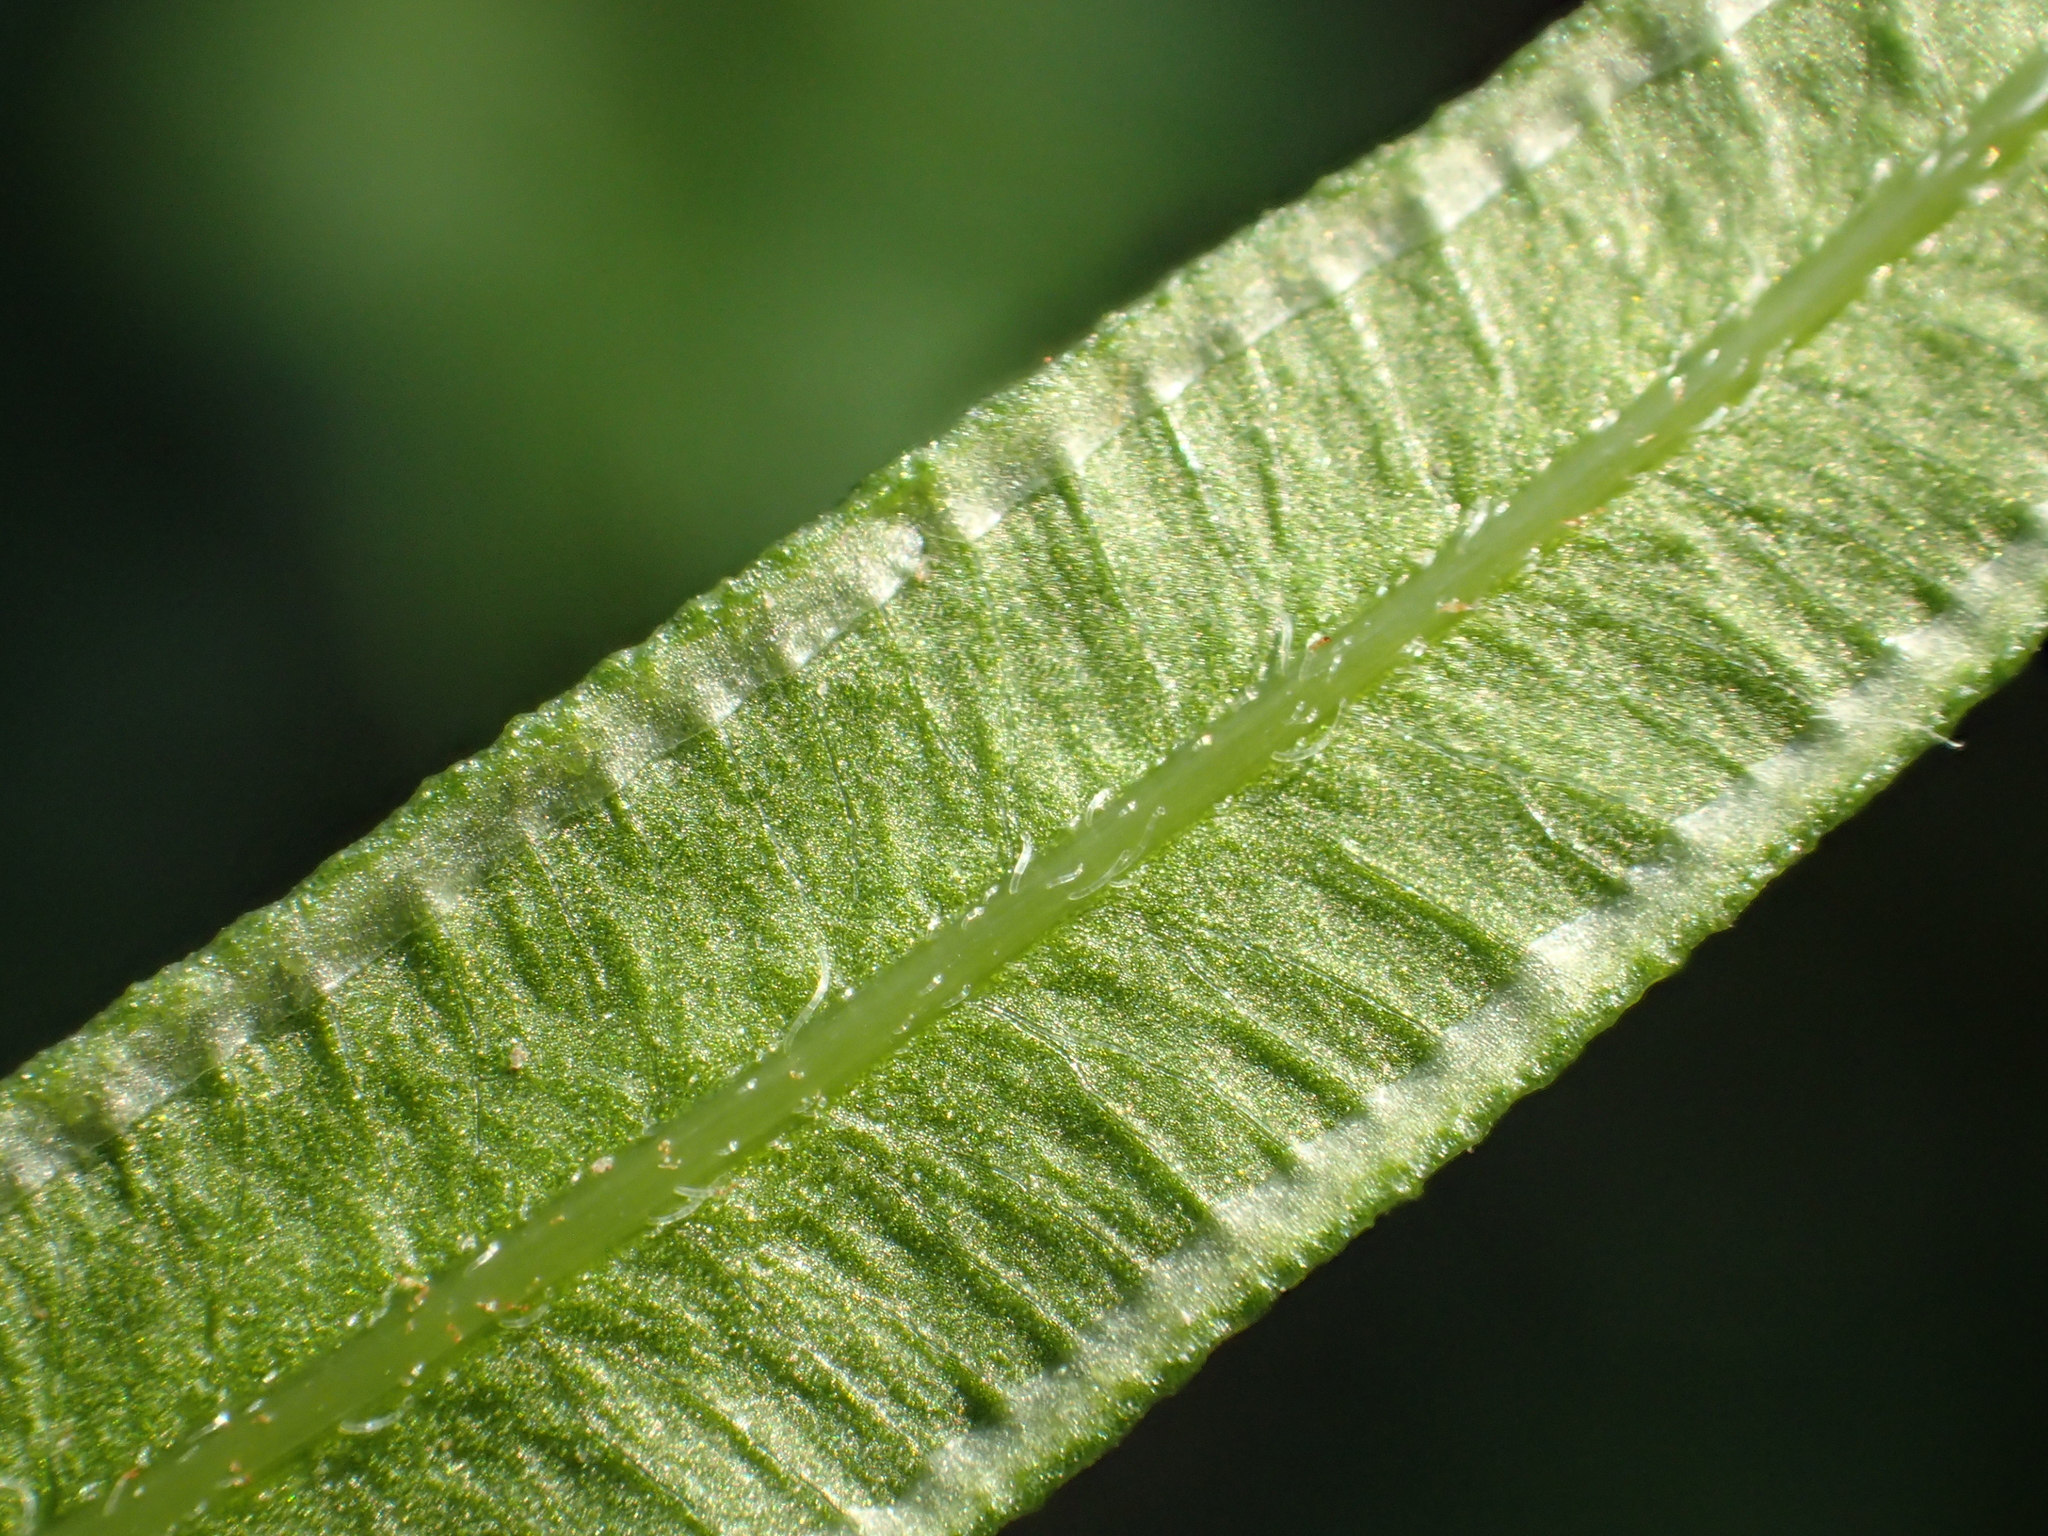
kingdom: Plantae
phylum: Tracheophyta
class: Polypodiopsida
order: Polypodiales
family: Pteridaceae
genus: Pteris
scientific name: Pteris multifida
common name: Spider brake
